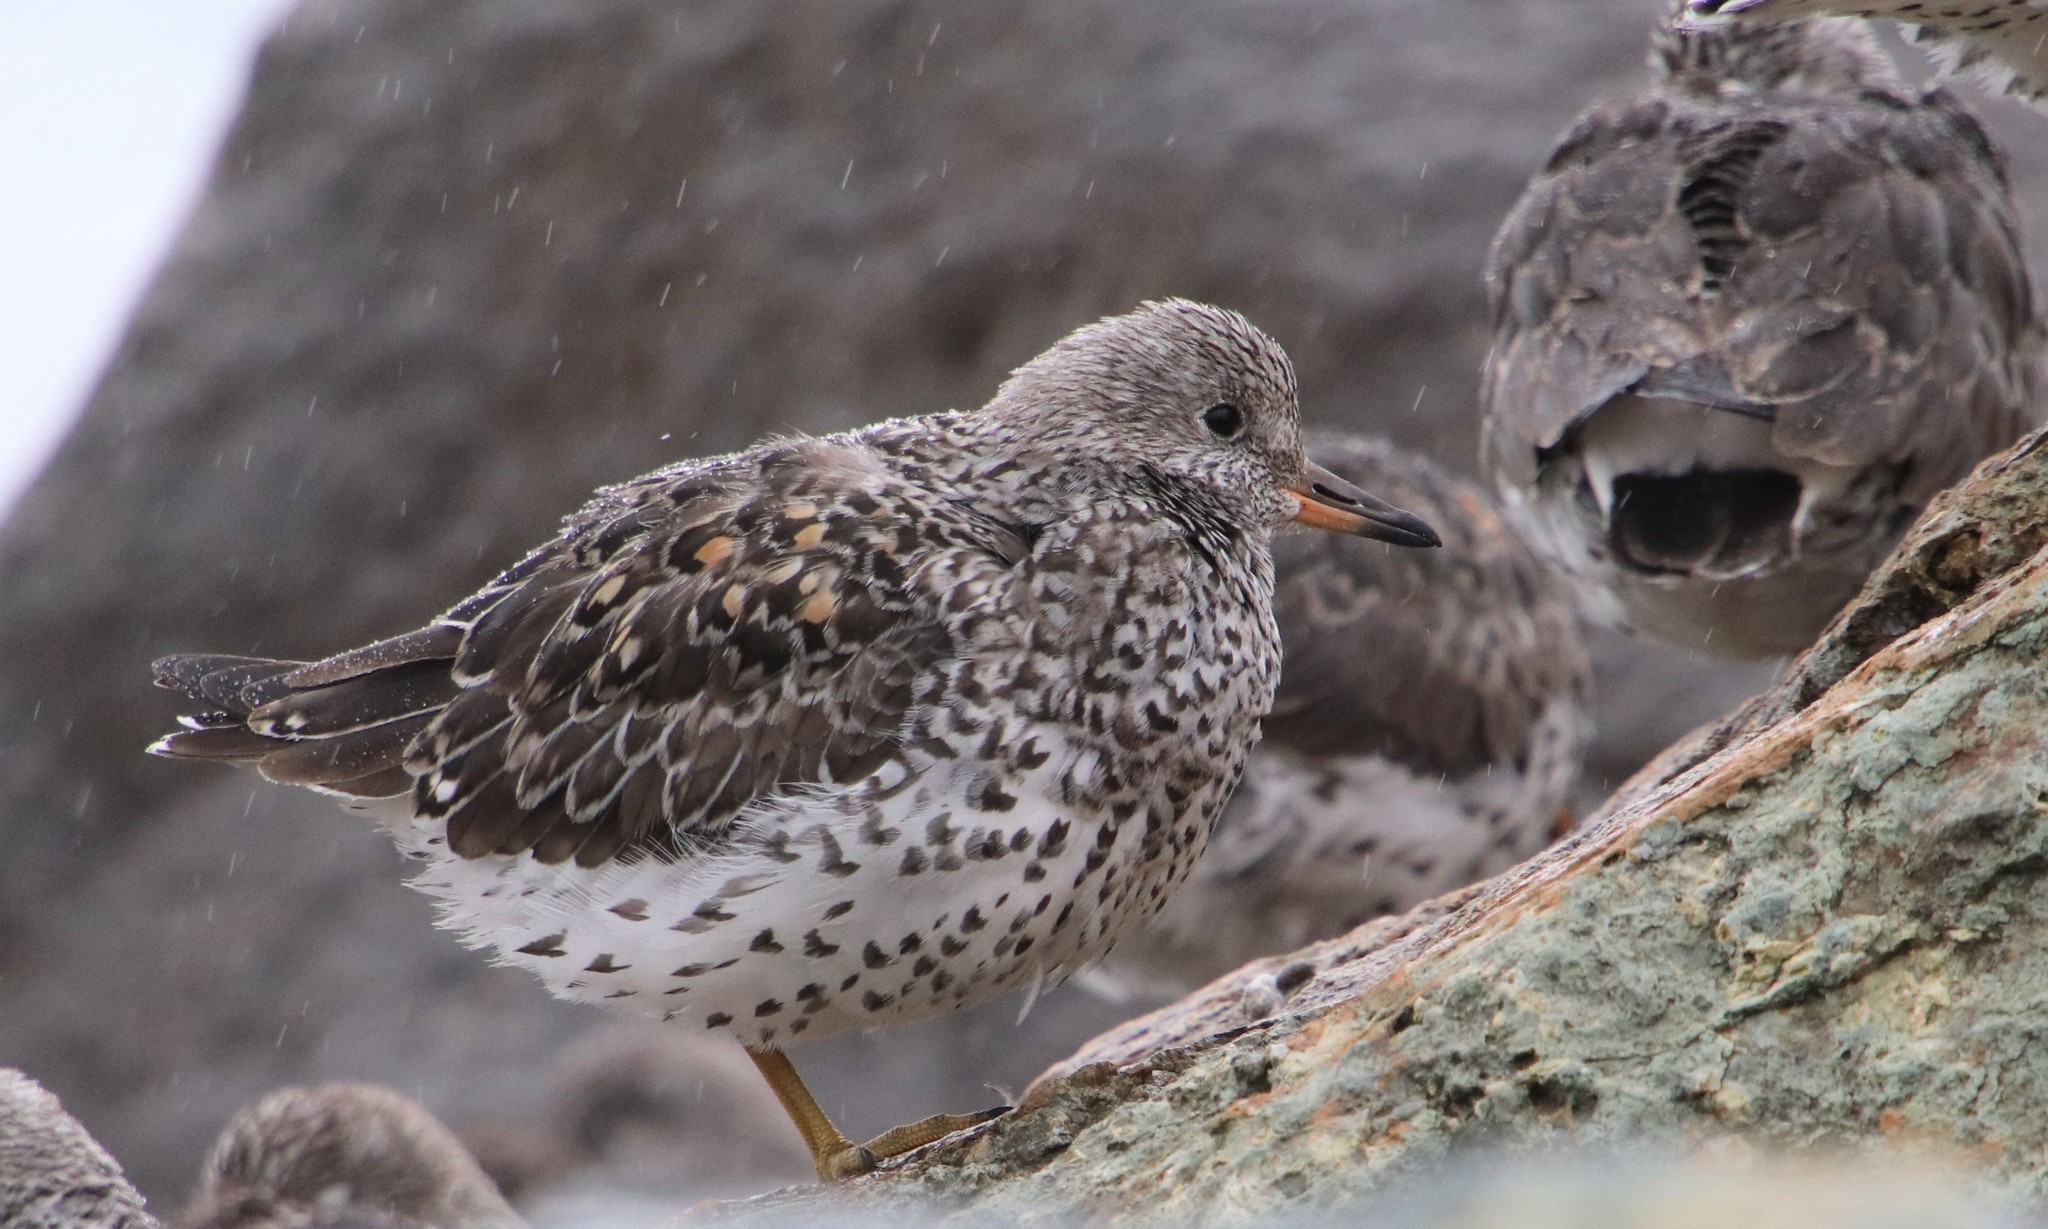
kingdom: Animalia
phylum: Chordata
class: Aves
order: Charadriiformes
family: Scolopacidae
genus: Calidris
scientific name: Calidris virgata
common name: Surfbird
